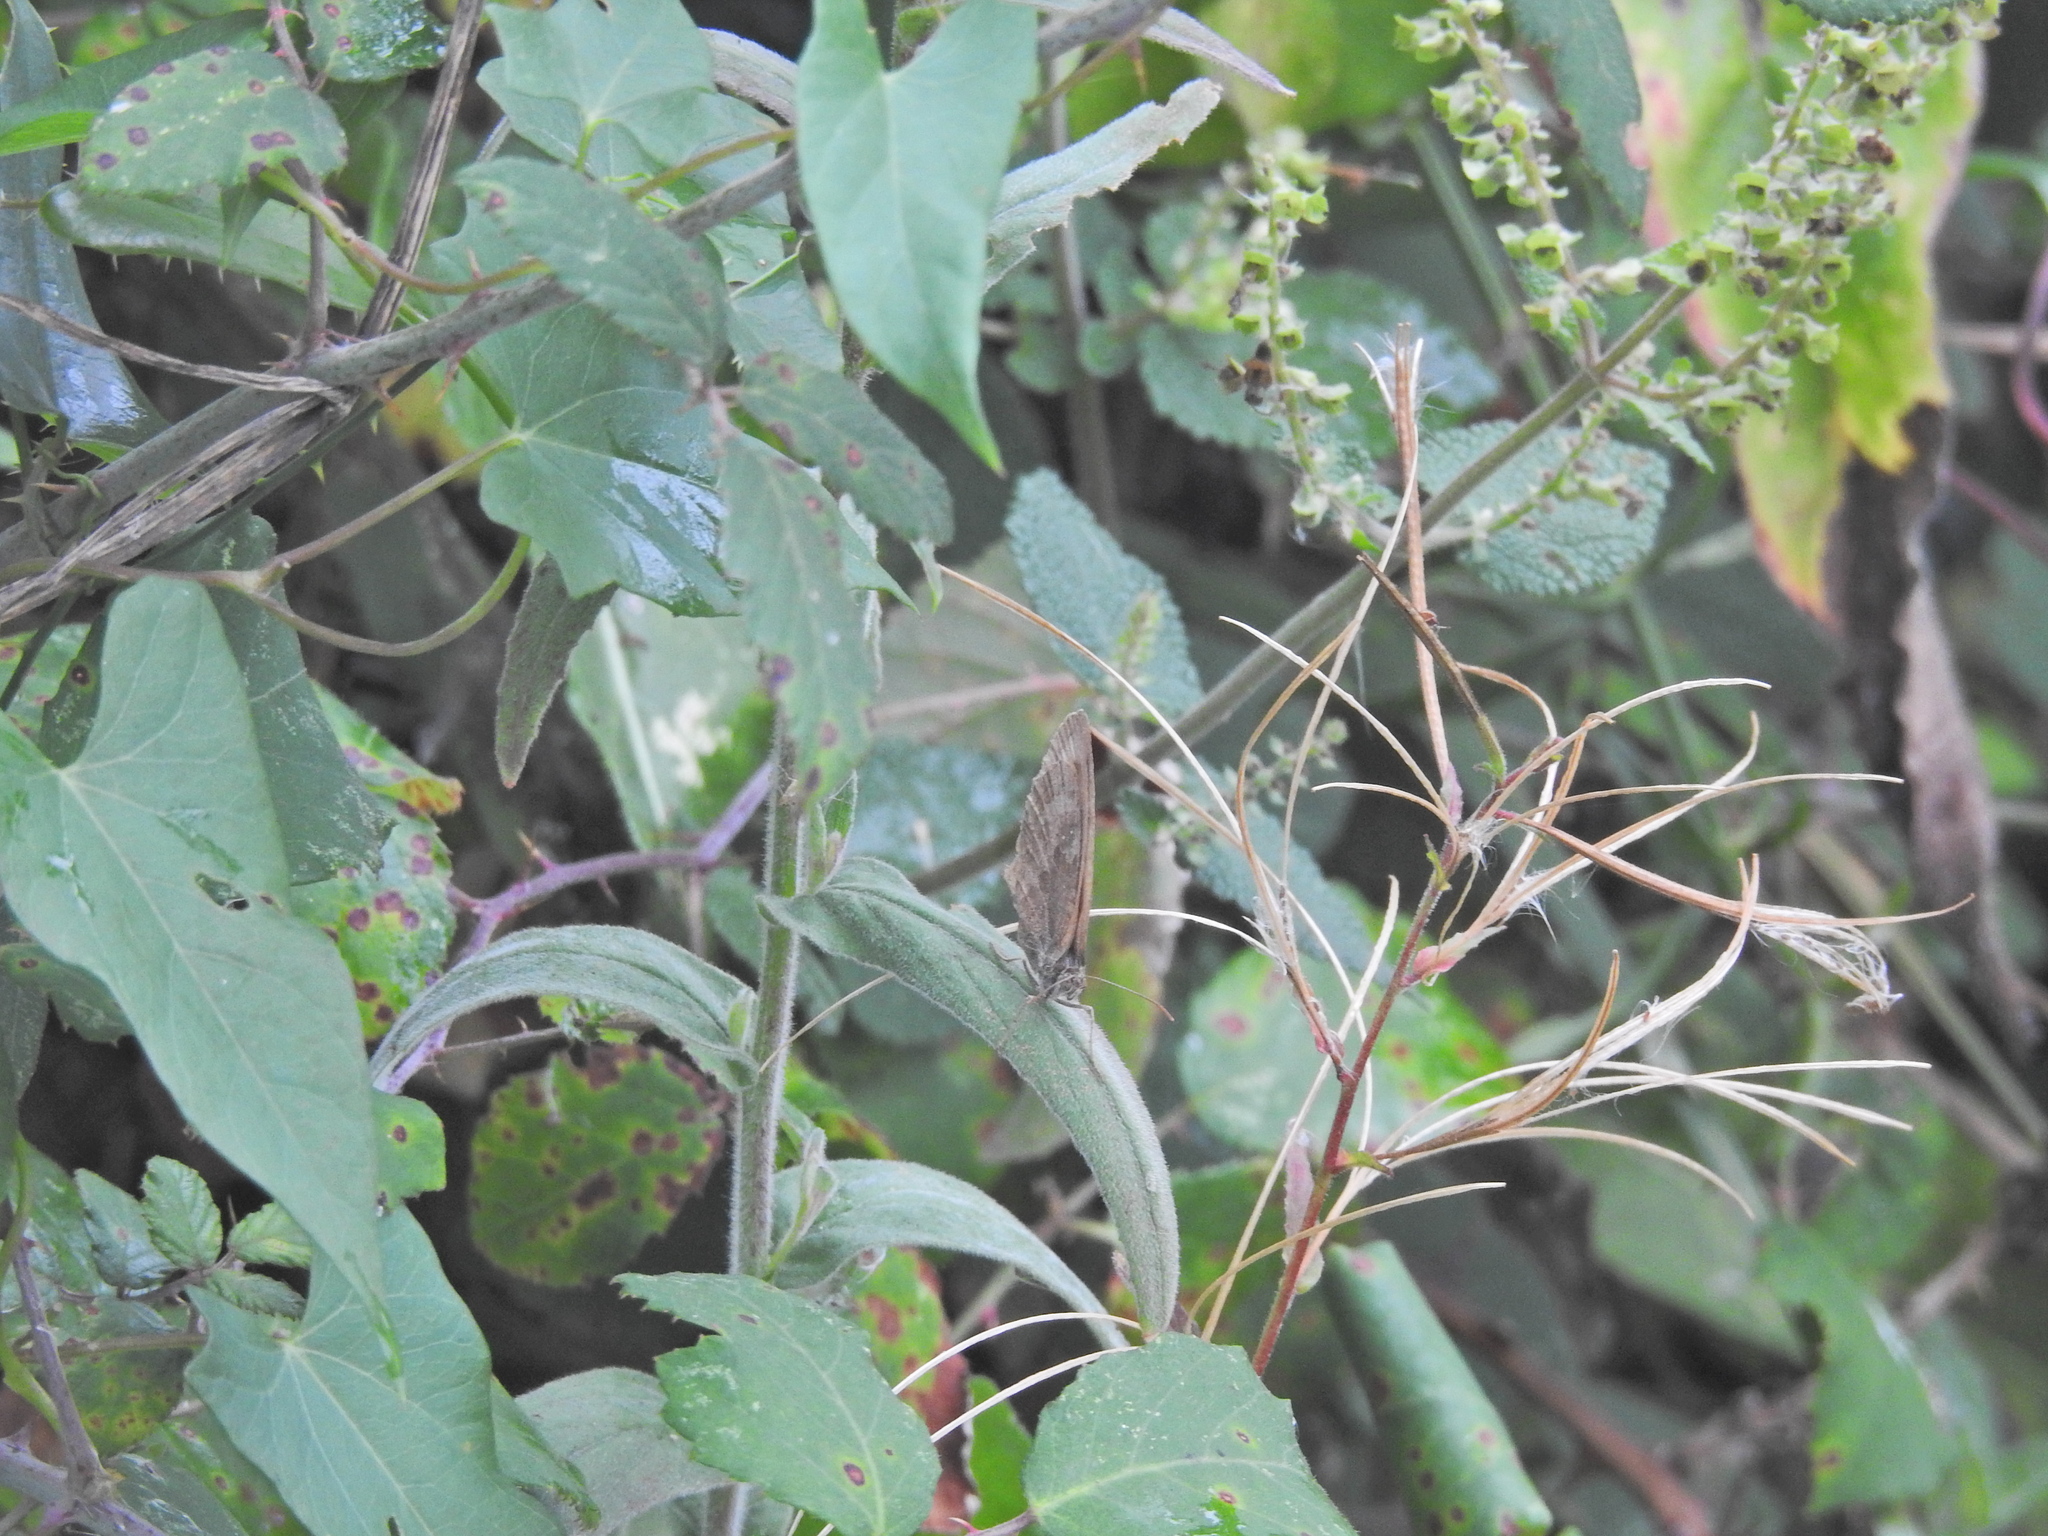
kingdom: Animalia
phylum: Arthropoda
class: Insecta
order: Lepidoptera
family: Nymphalidae
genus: Pyronia
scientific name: Pyronia tithonus
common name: Gatekeeper
